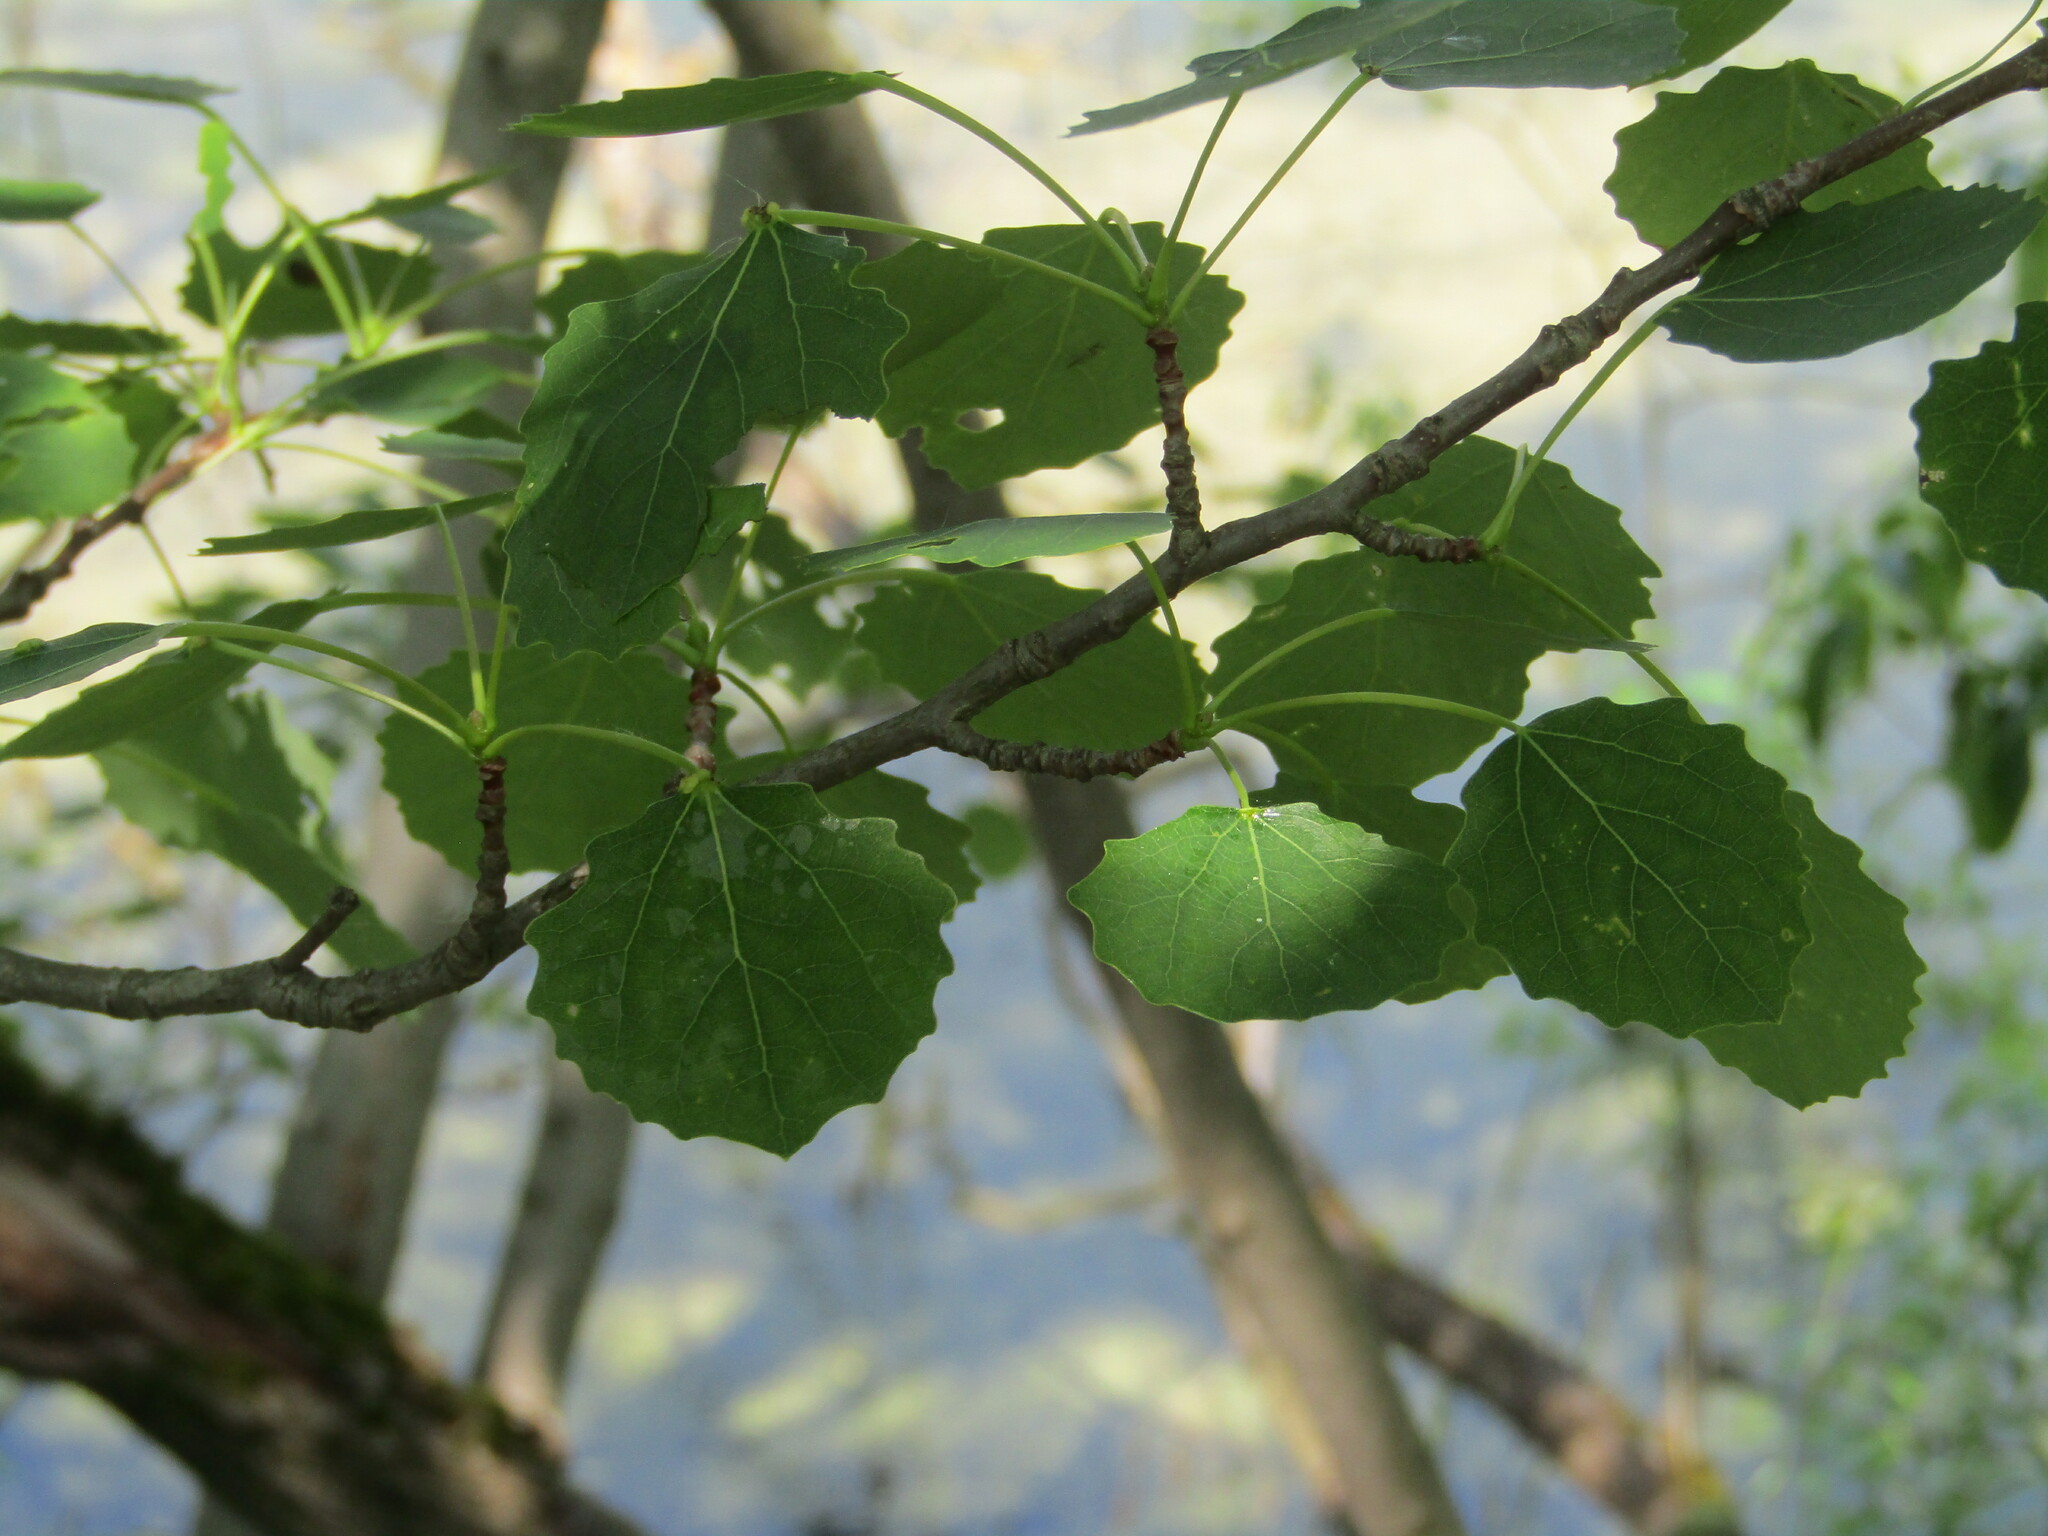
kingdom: Plantae
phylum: Tracheophyta
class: Magnoliopsida
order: Malpighiales
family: Salicaceae
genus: Populus
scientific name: Populus tremula
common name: European aspen
